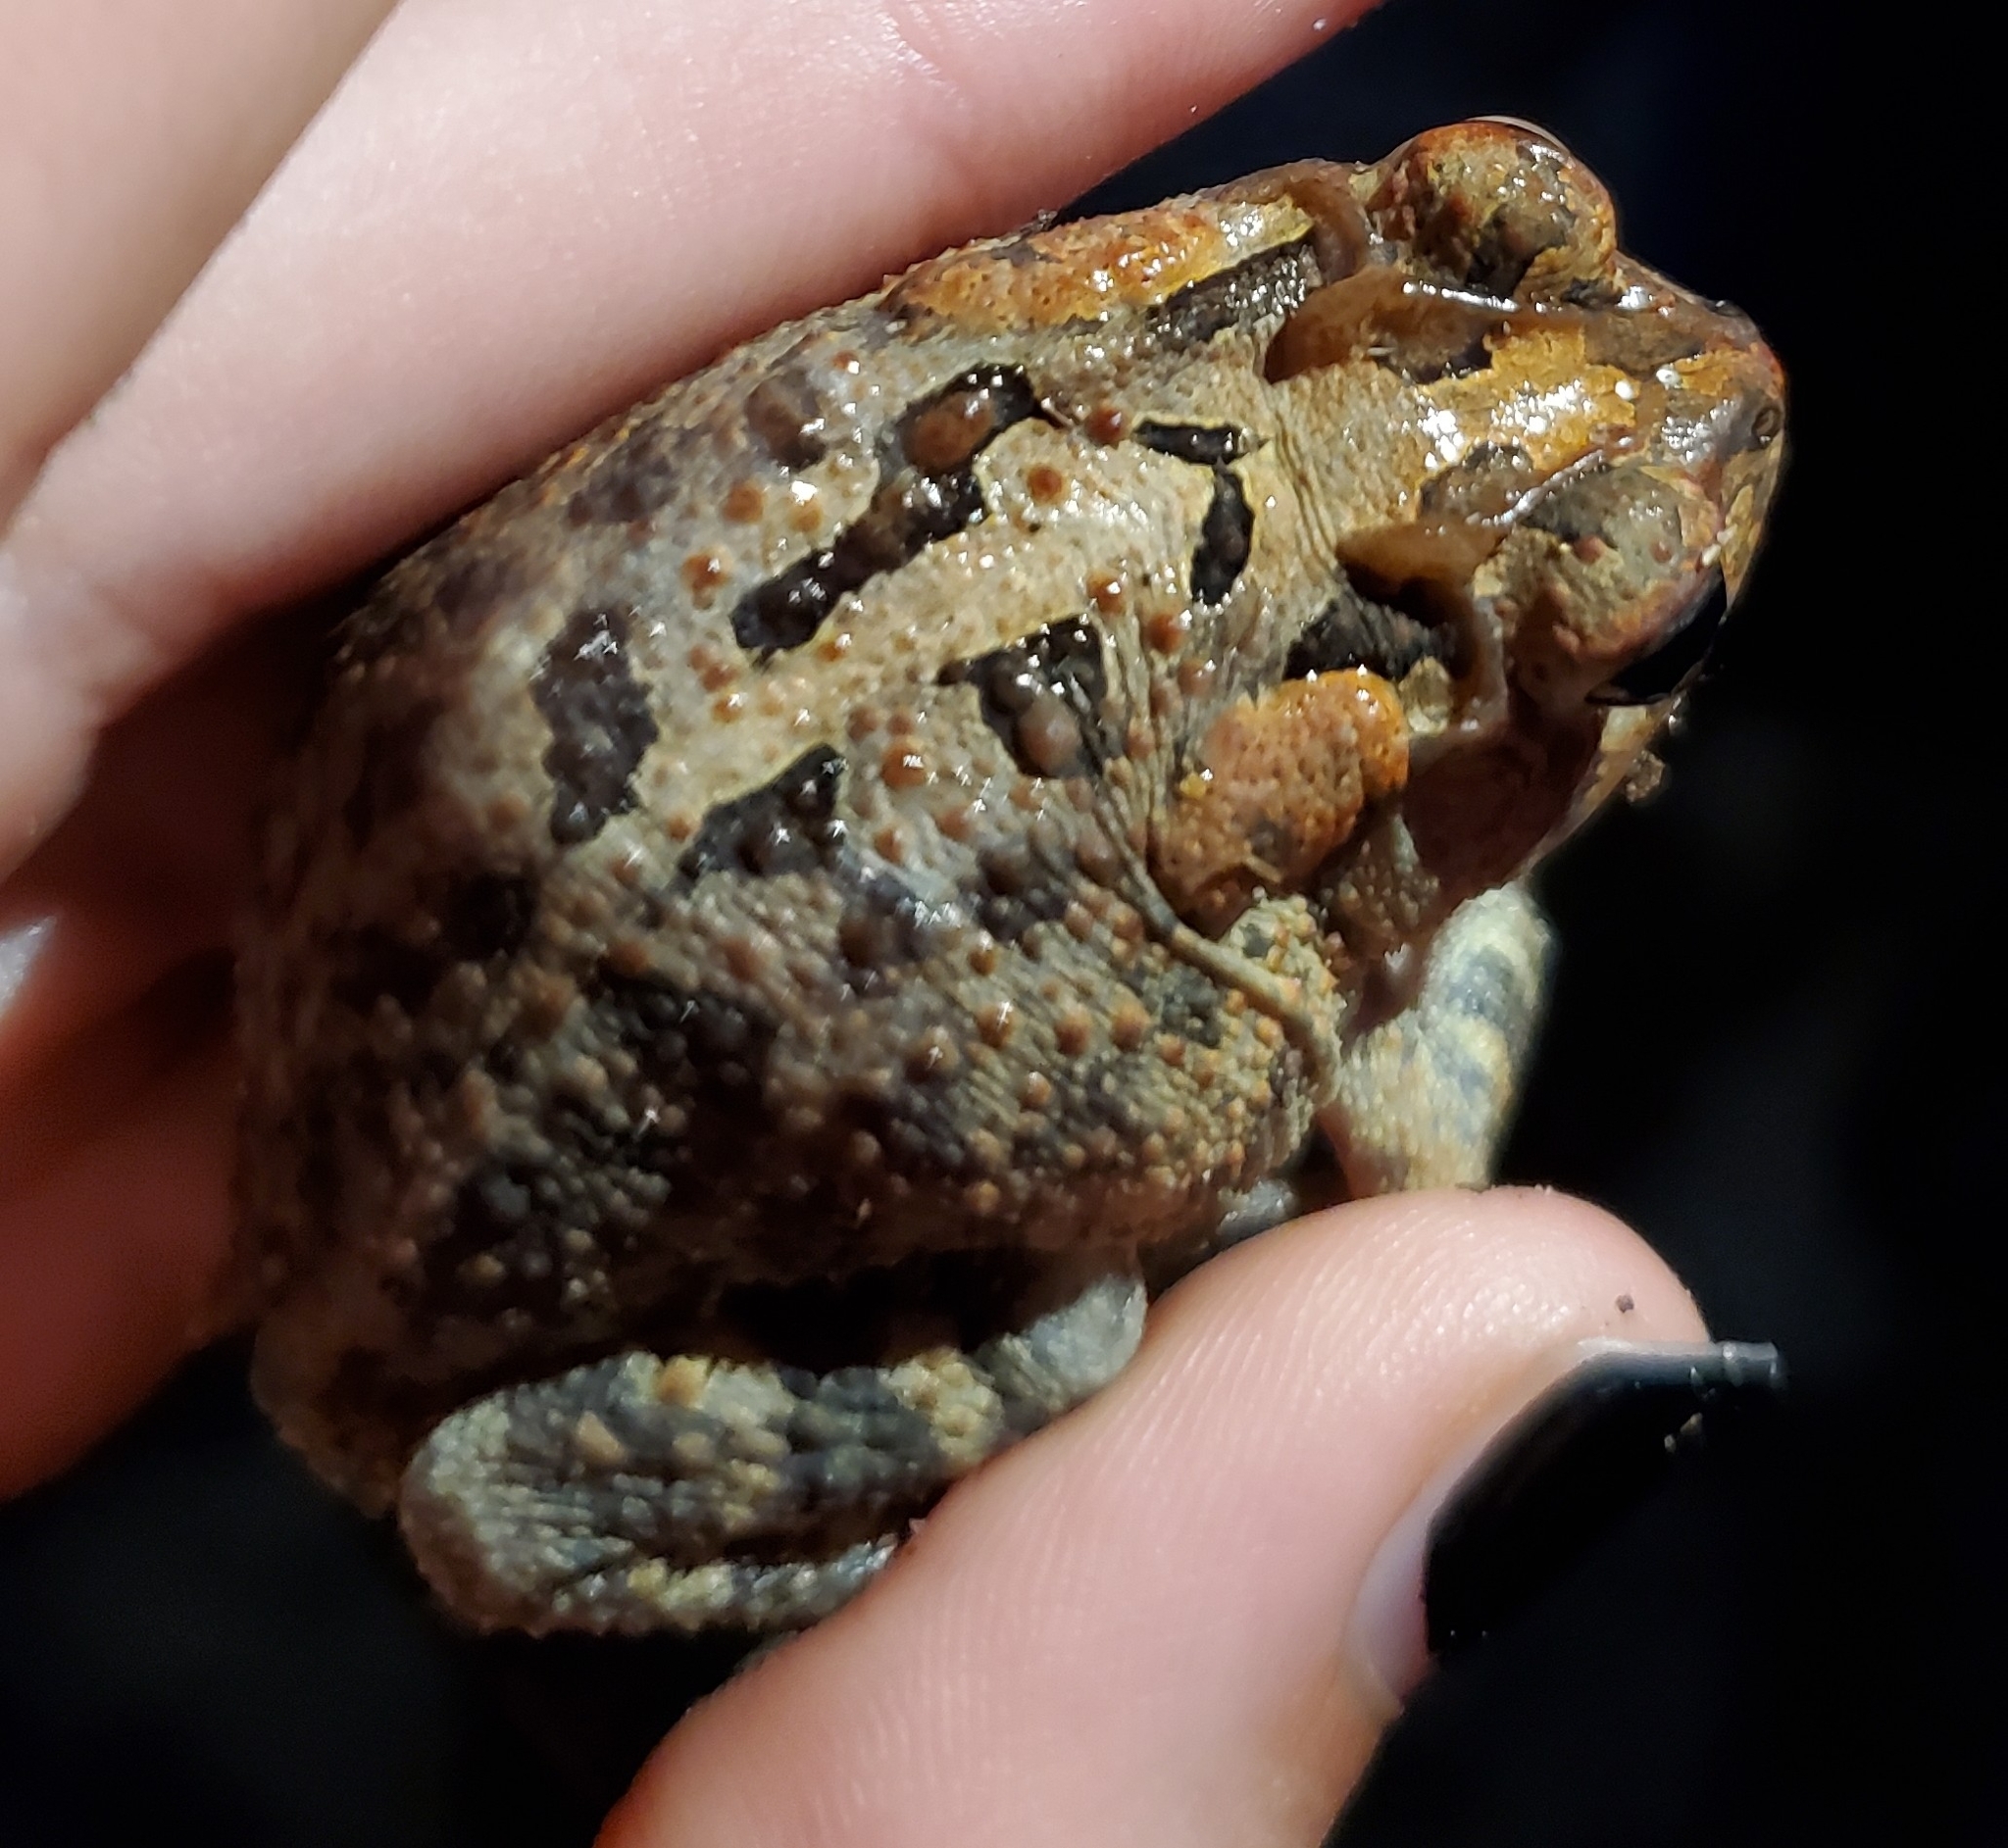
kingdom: Animalia
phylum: Chordata
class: Amphibia
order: Anura
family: Bufonidae
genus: Anaxyrus
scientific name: Anaxyrus terrestris
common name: Southern toad
